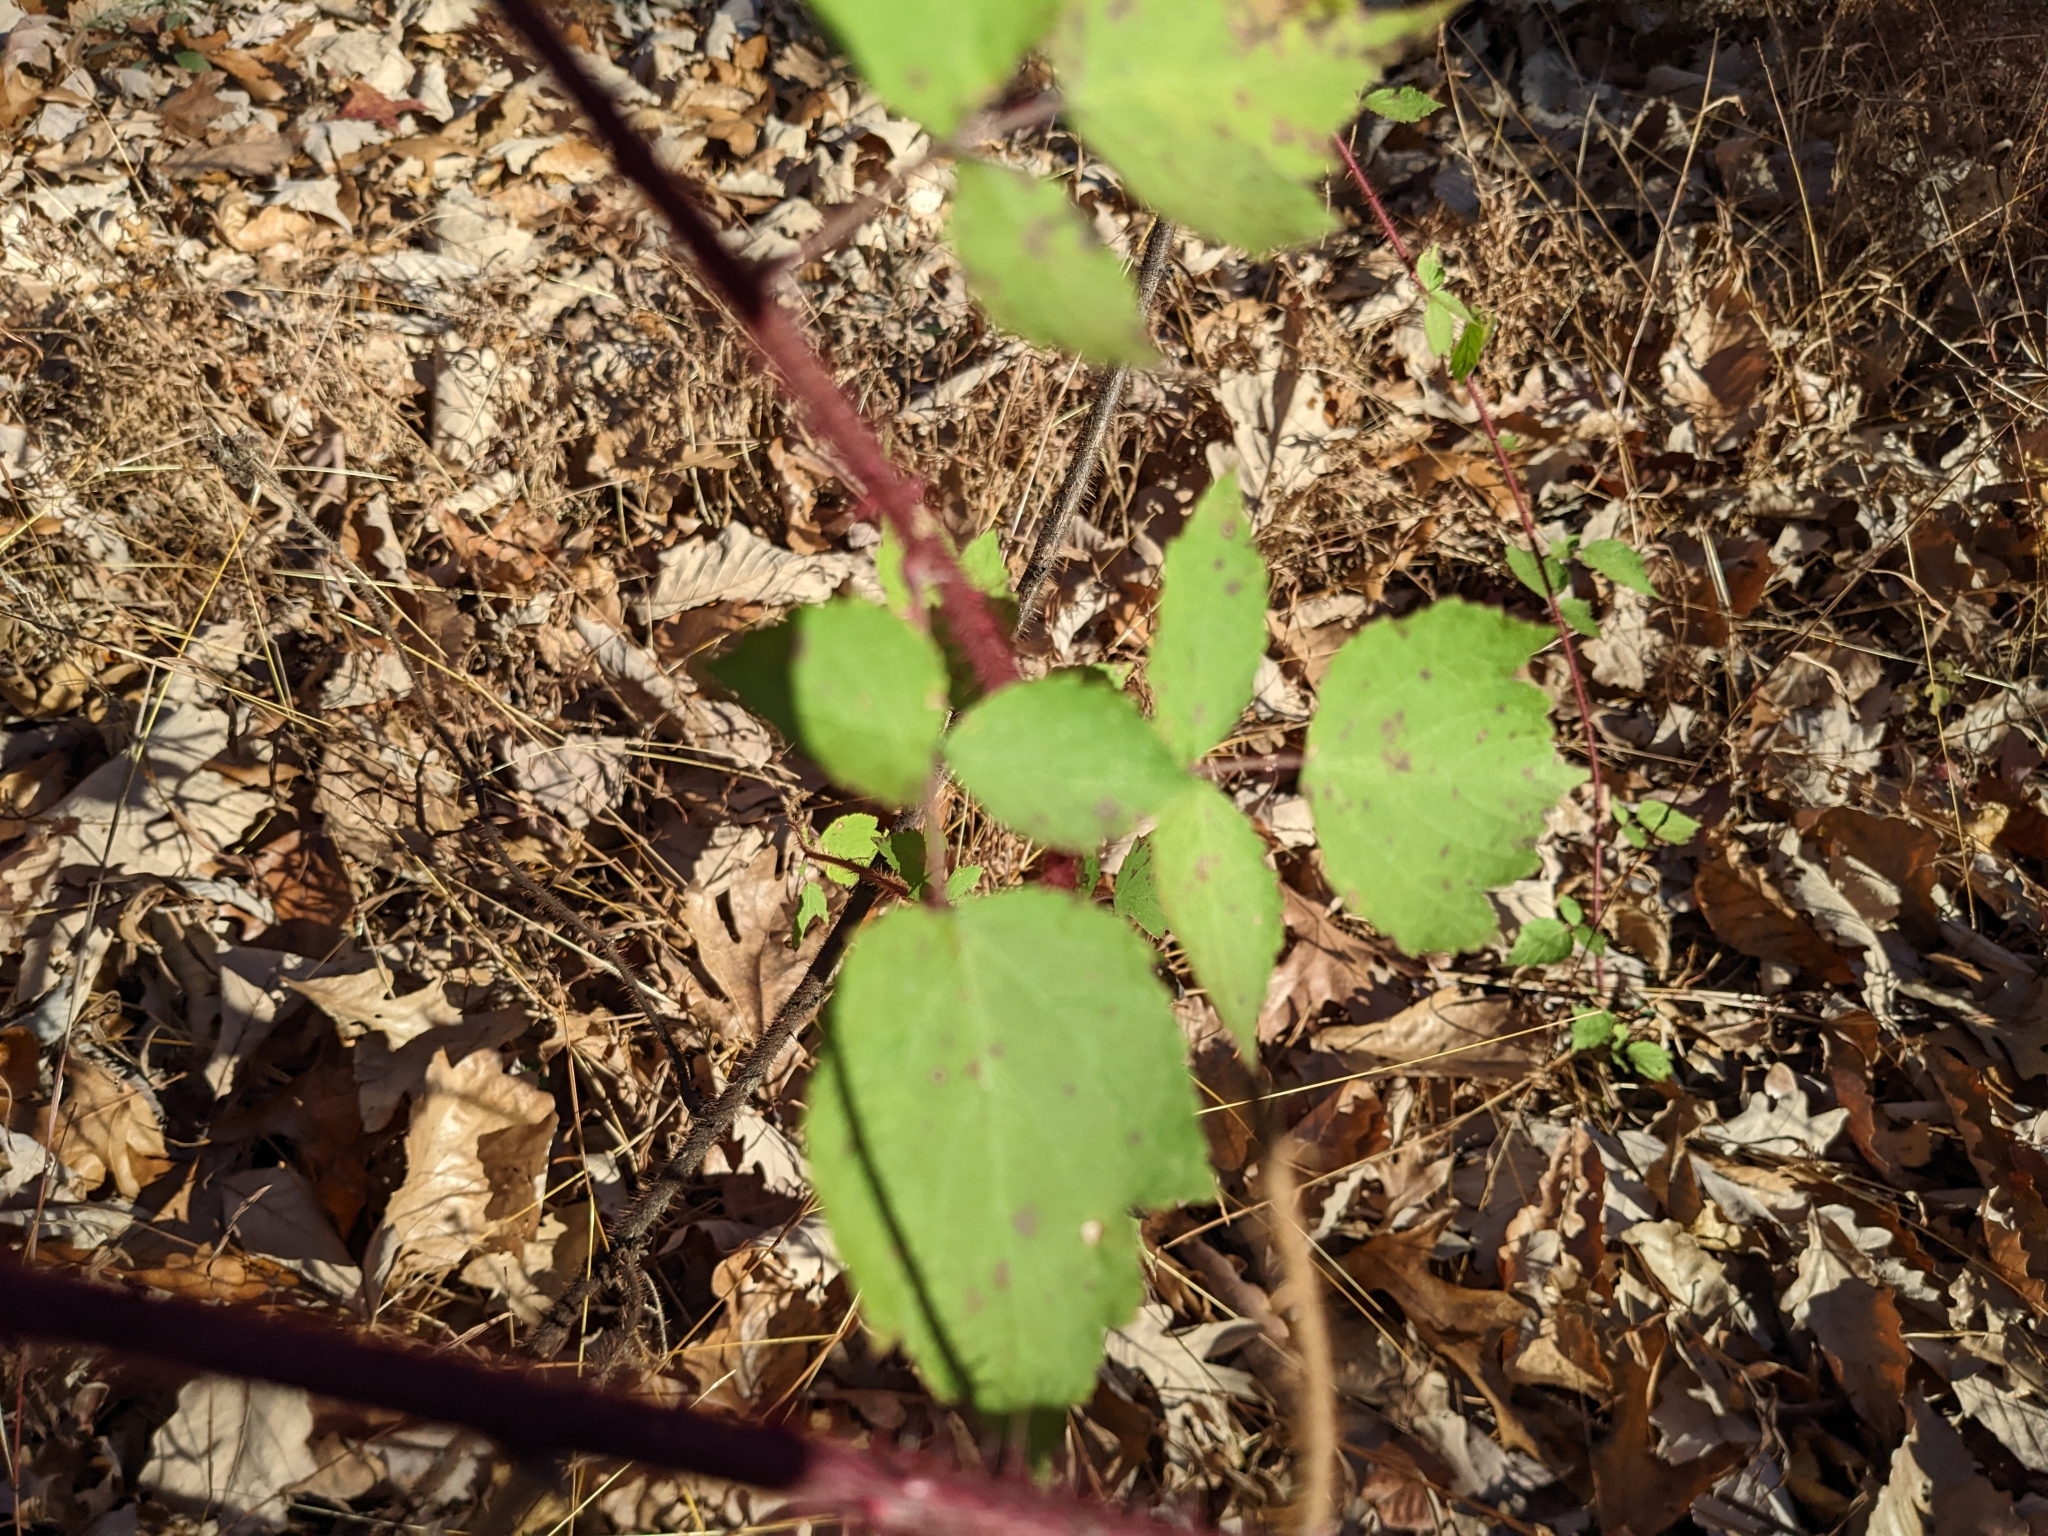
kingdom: Plantae
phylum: Tracheophyta
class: Magnoliopsida
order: Rosales
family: Rosaceae
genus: Rubus
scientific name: Rubus phoenicolasius
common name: Japanese wineberry
